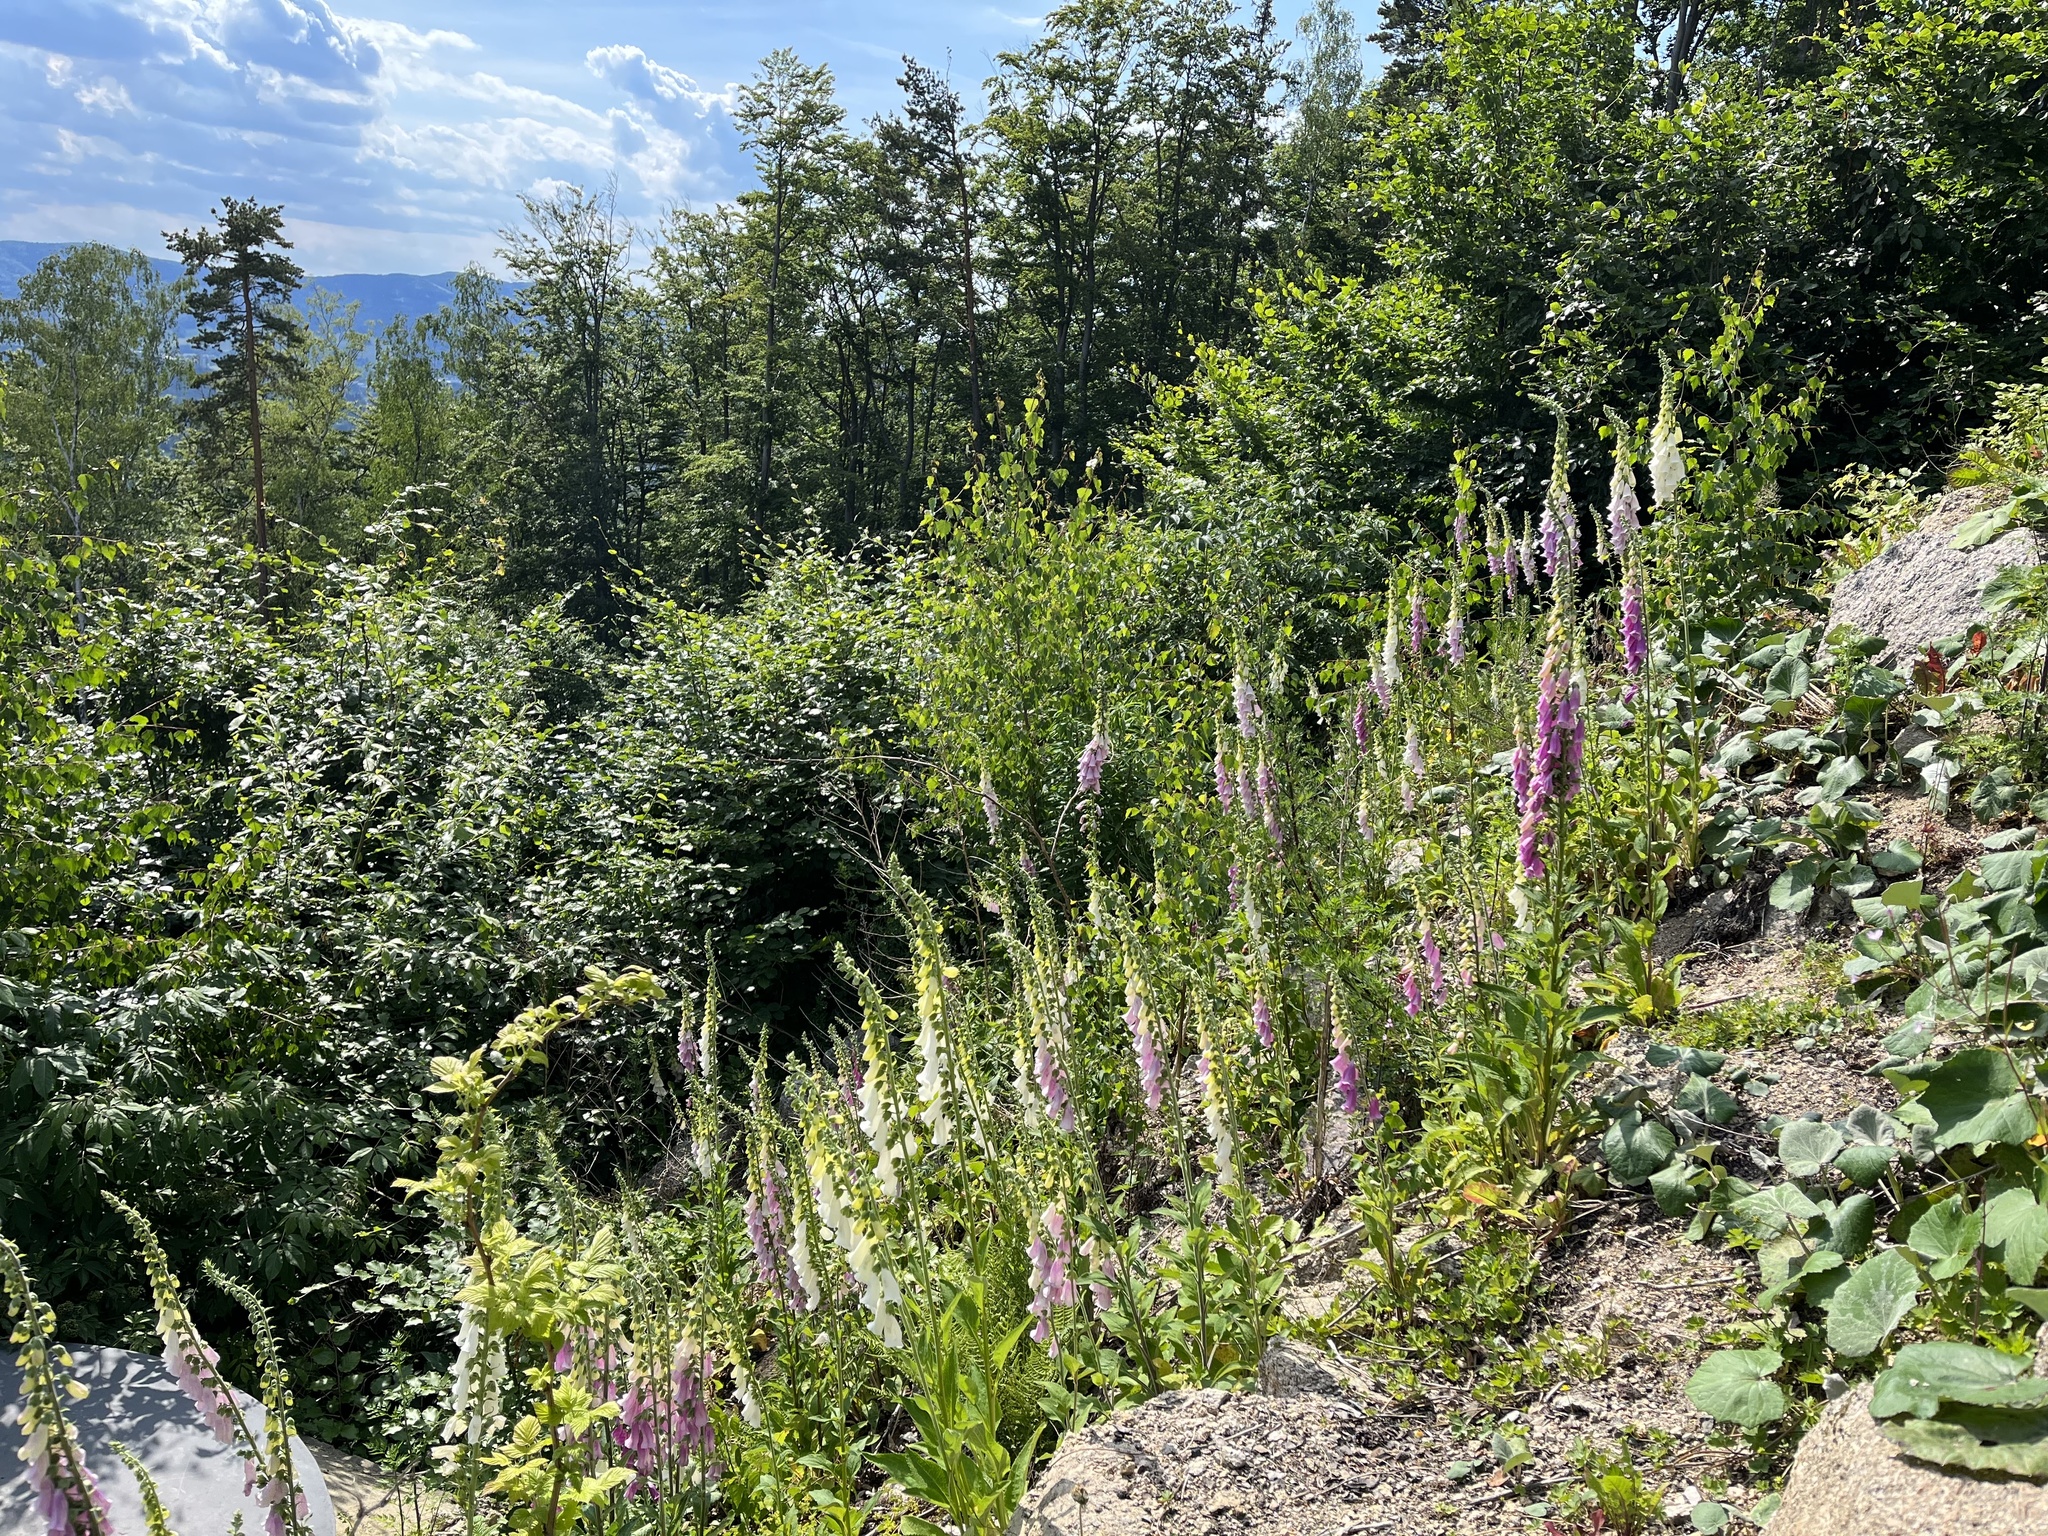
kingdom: Plantae
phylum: Tracheophyta
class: Magnoliopsida
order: Lamiales
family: Plantaginaceae
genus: Digitalis
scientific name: Digitalis purpurea
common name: Foxglove
